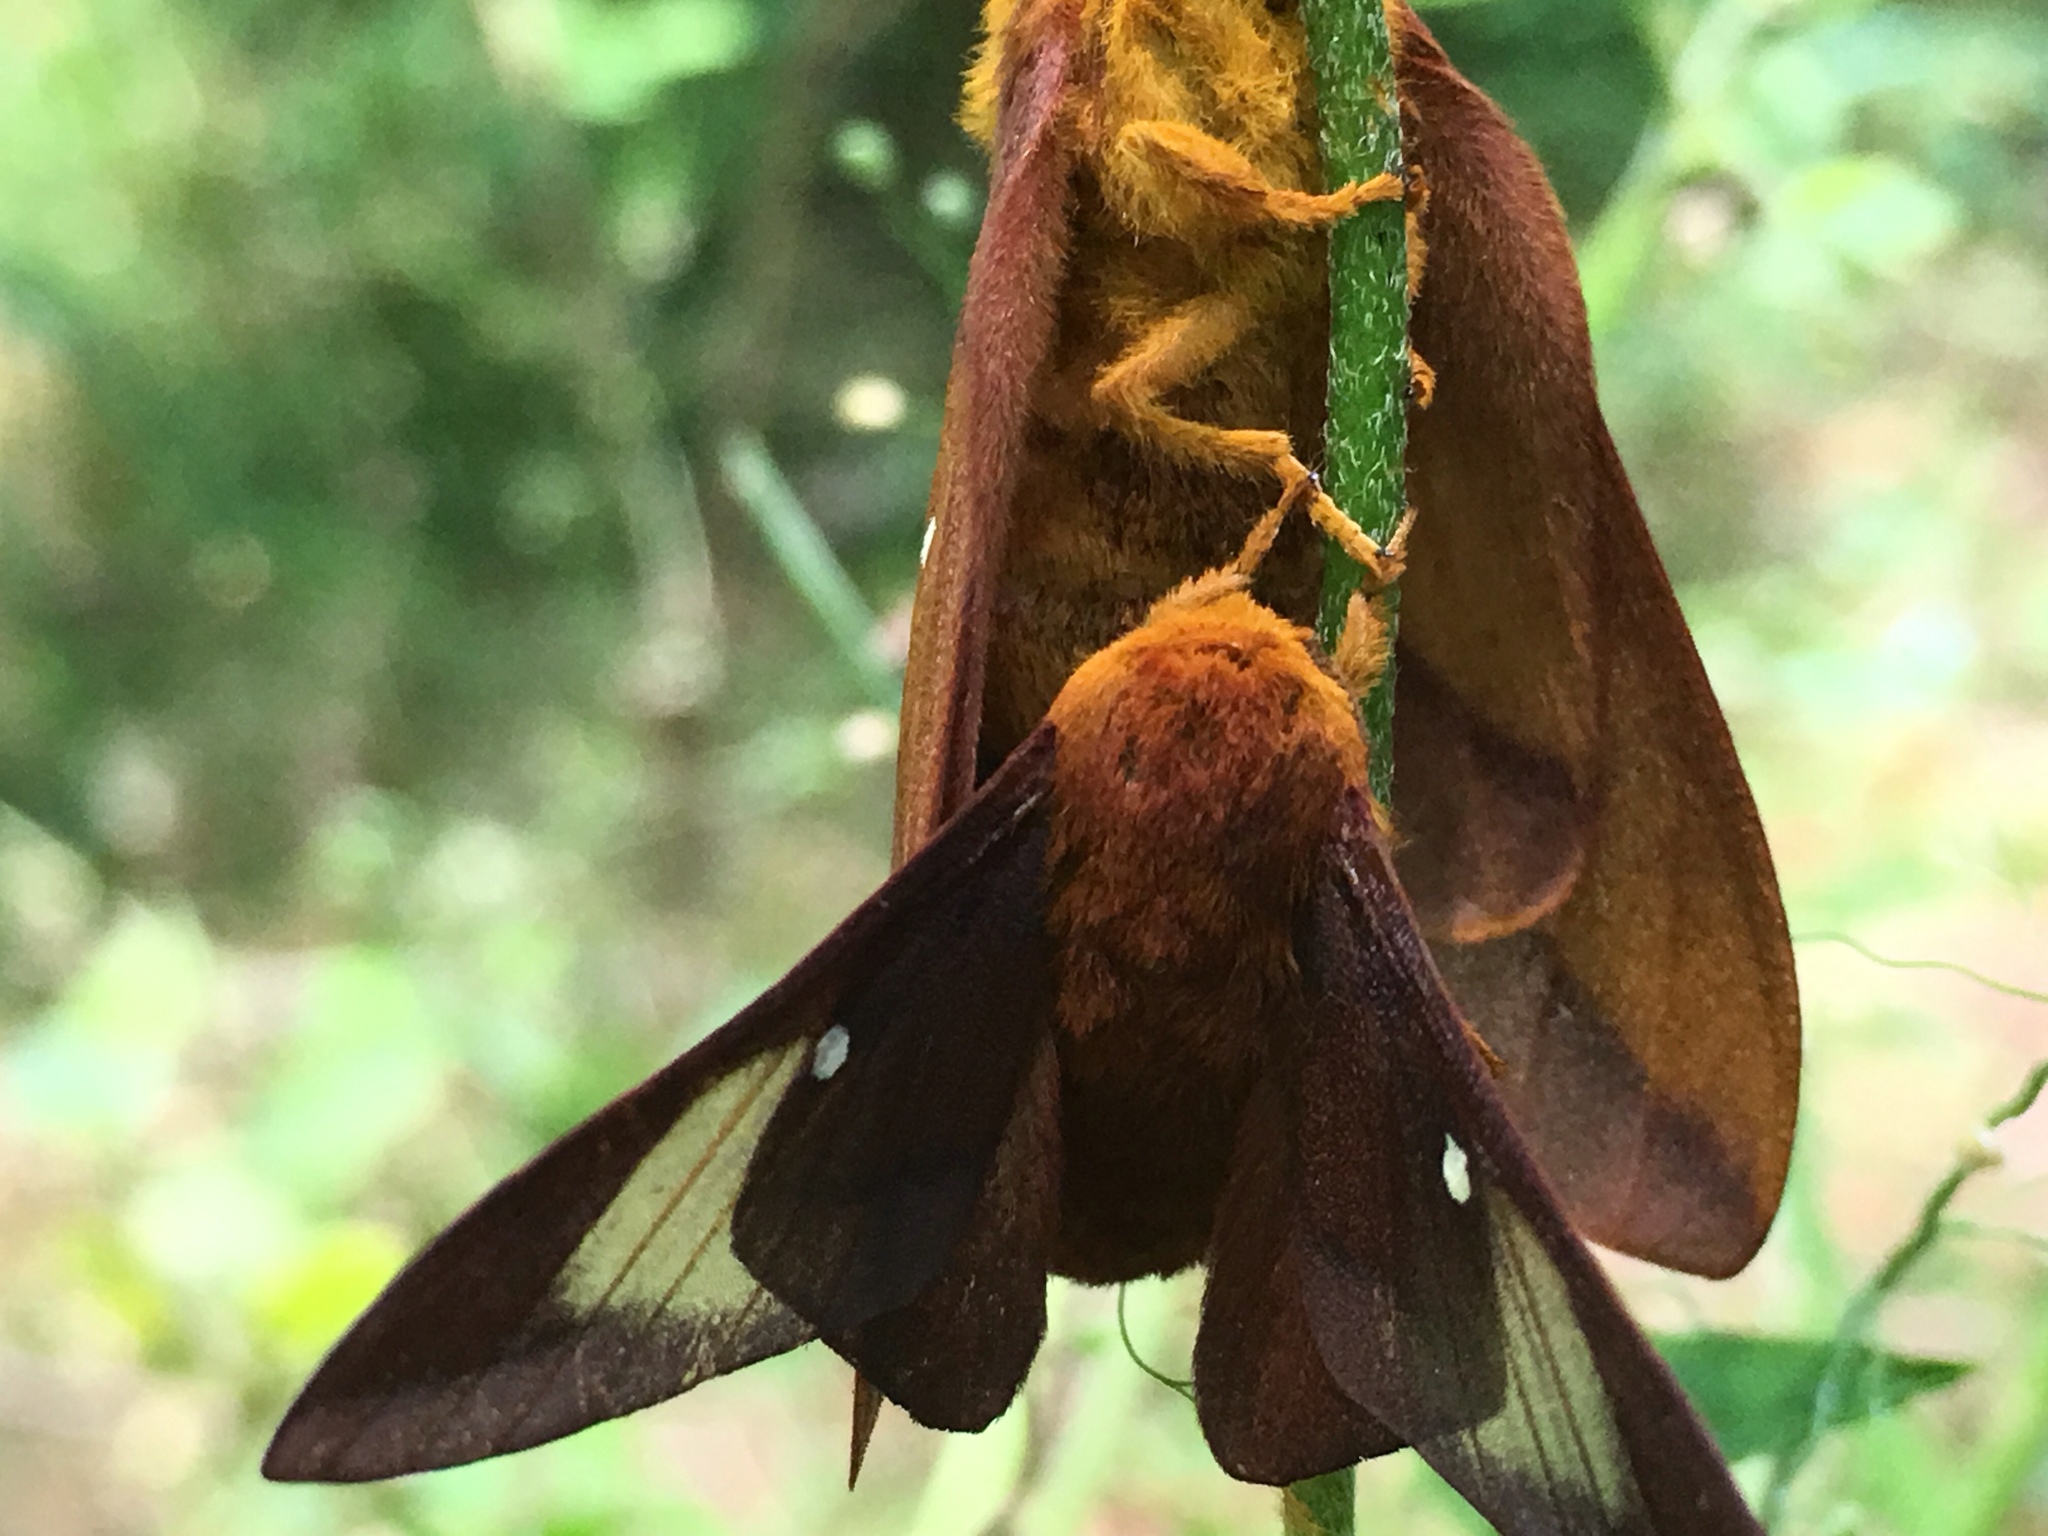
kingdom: Animalia
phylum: Arthropoda
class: Insecta
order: Lepidoptera
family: Saturniidae
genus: Anisota
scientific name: Anisota virginiensis
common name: Pink striped oakworm moth
